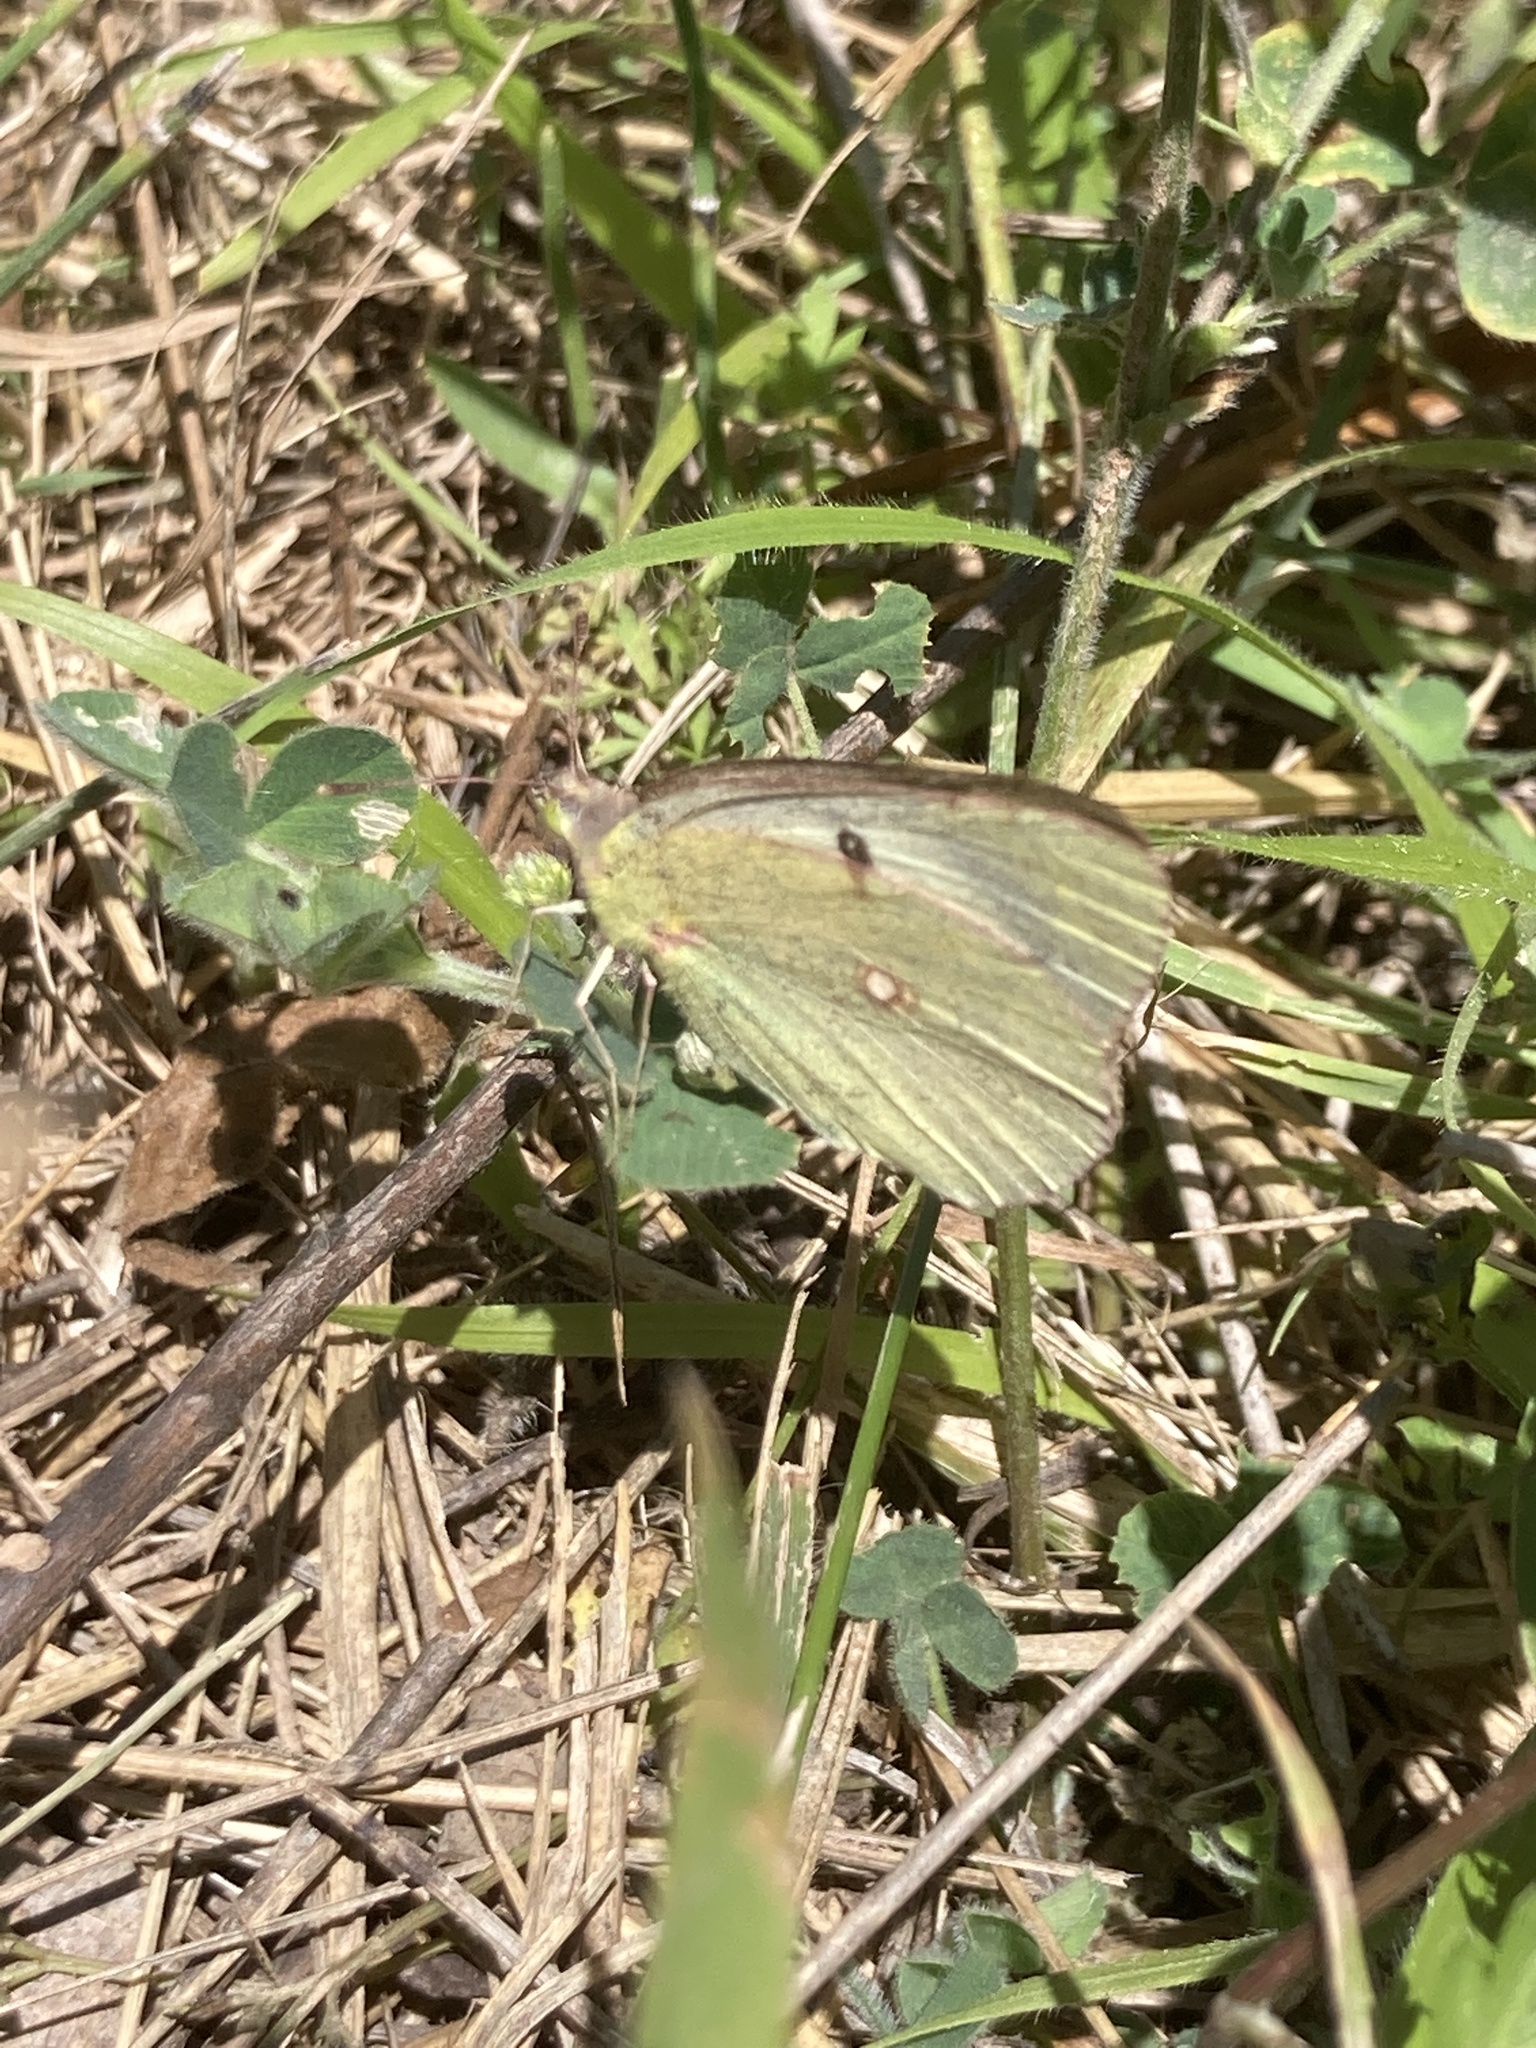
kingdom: Animalia
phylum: Arthropoda
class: Insecta
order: Lepidoptera
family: Pieridae
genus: Colias
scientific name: Colias croceus
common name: Clouded yellow
